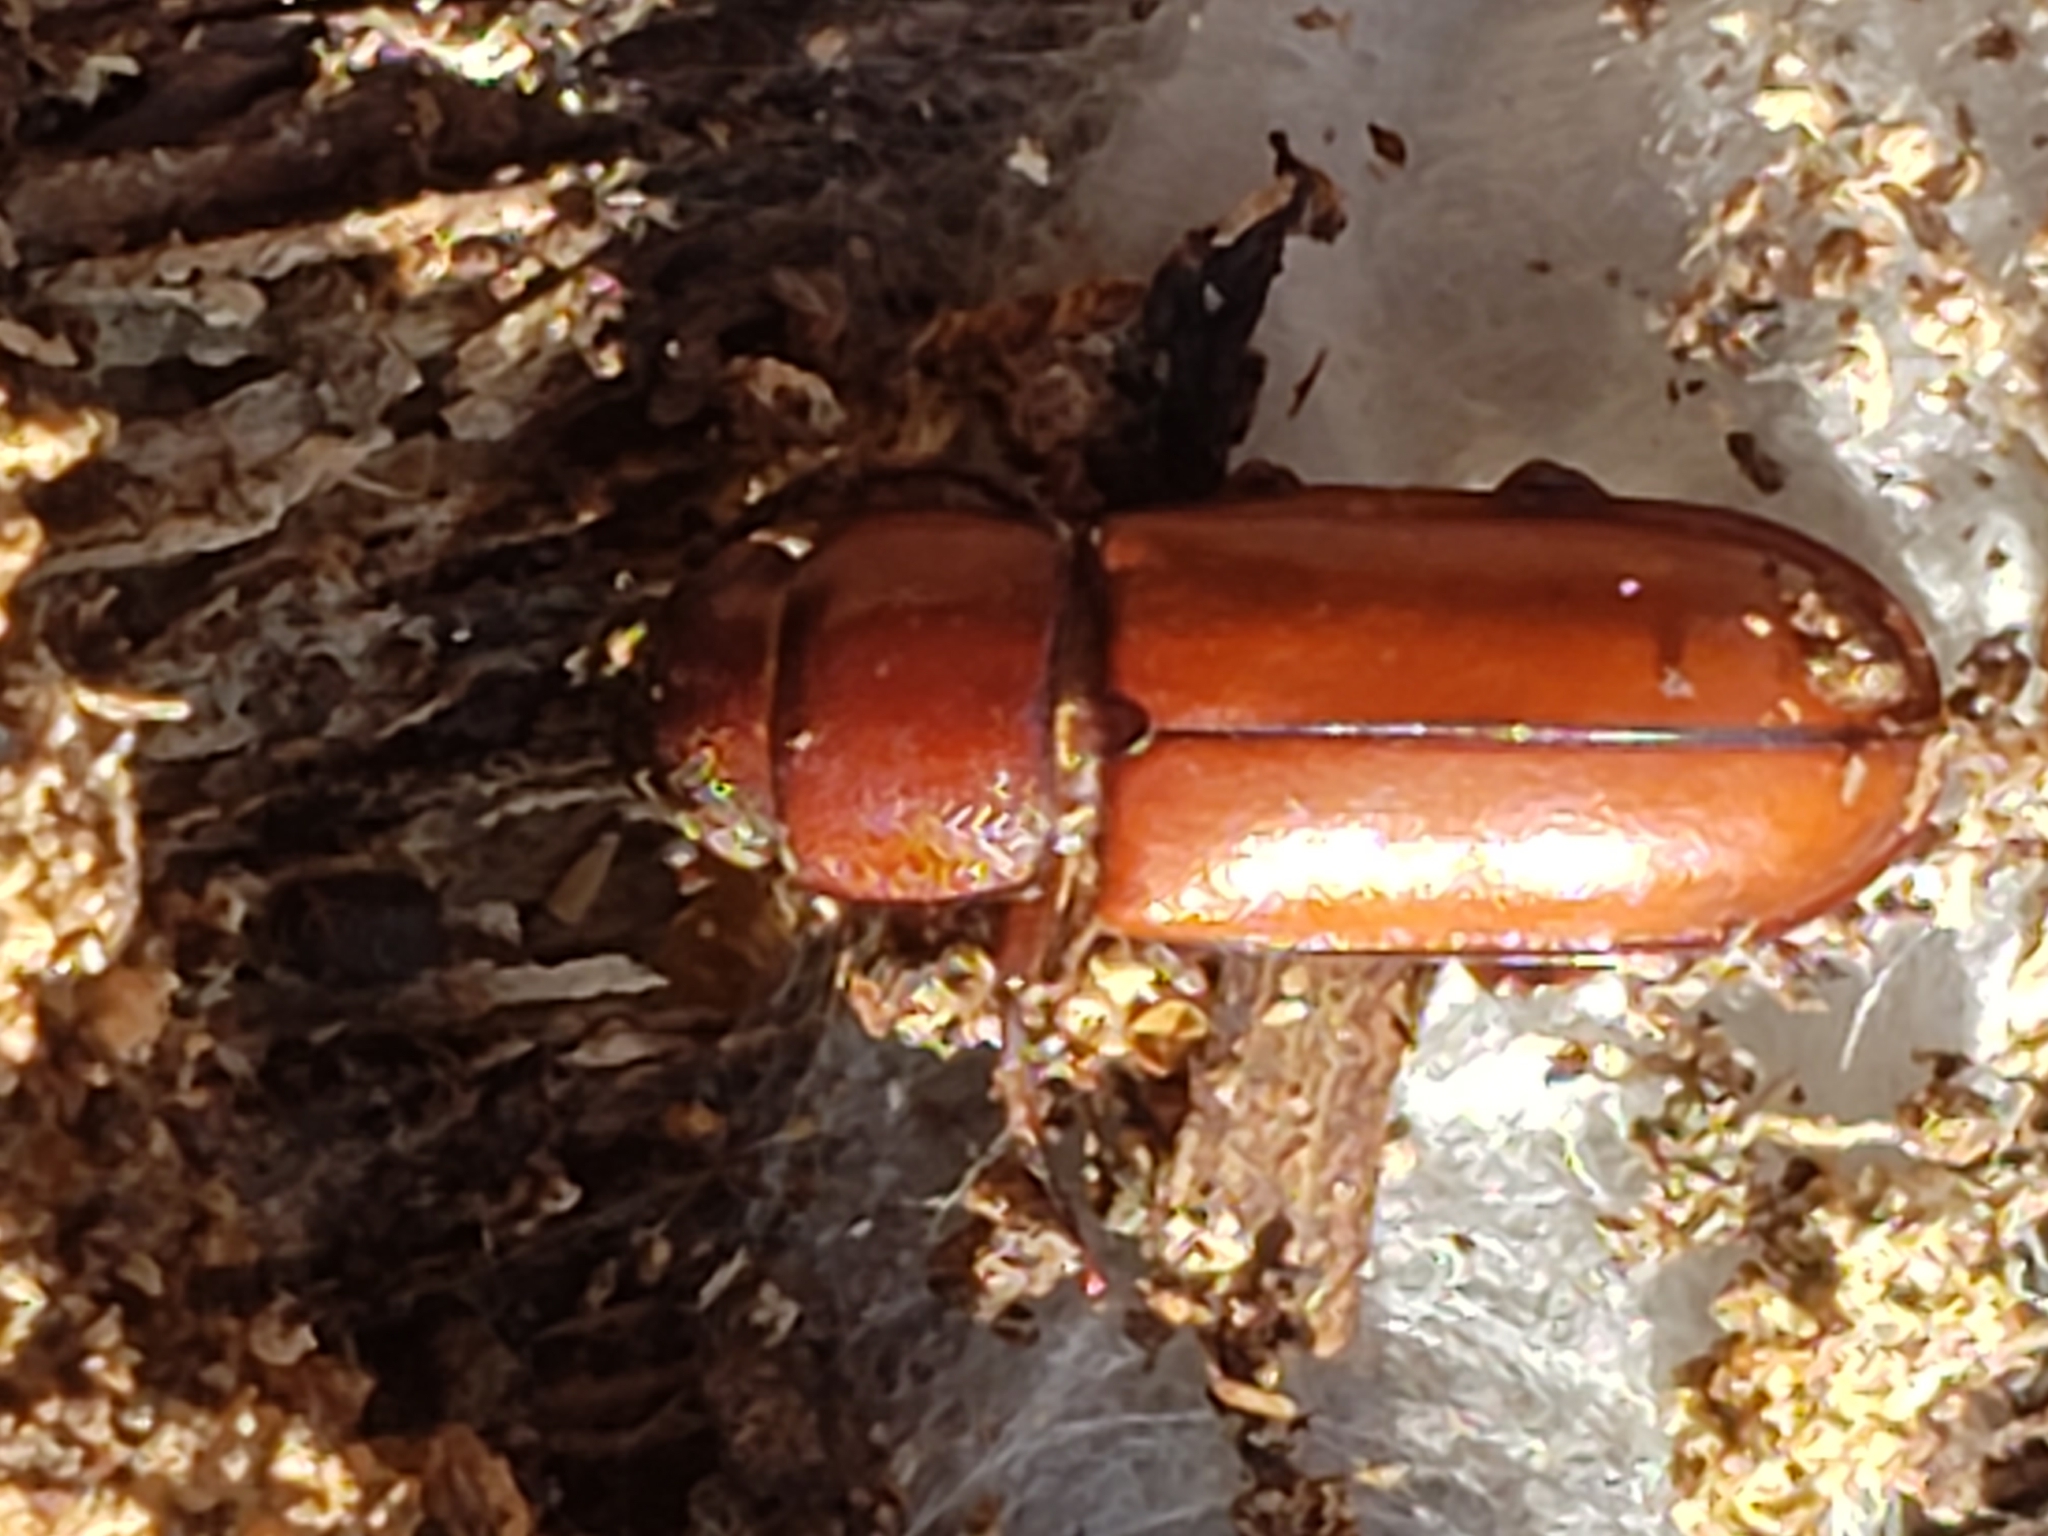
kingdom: Animalia
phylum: Arthropoda
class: Insecta
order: Coleoptera
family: Cerambycidae
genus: Neandra
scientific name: Neandra brunnea
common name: Pole borer
